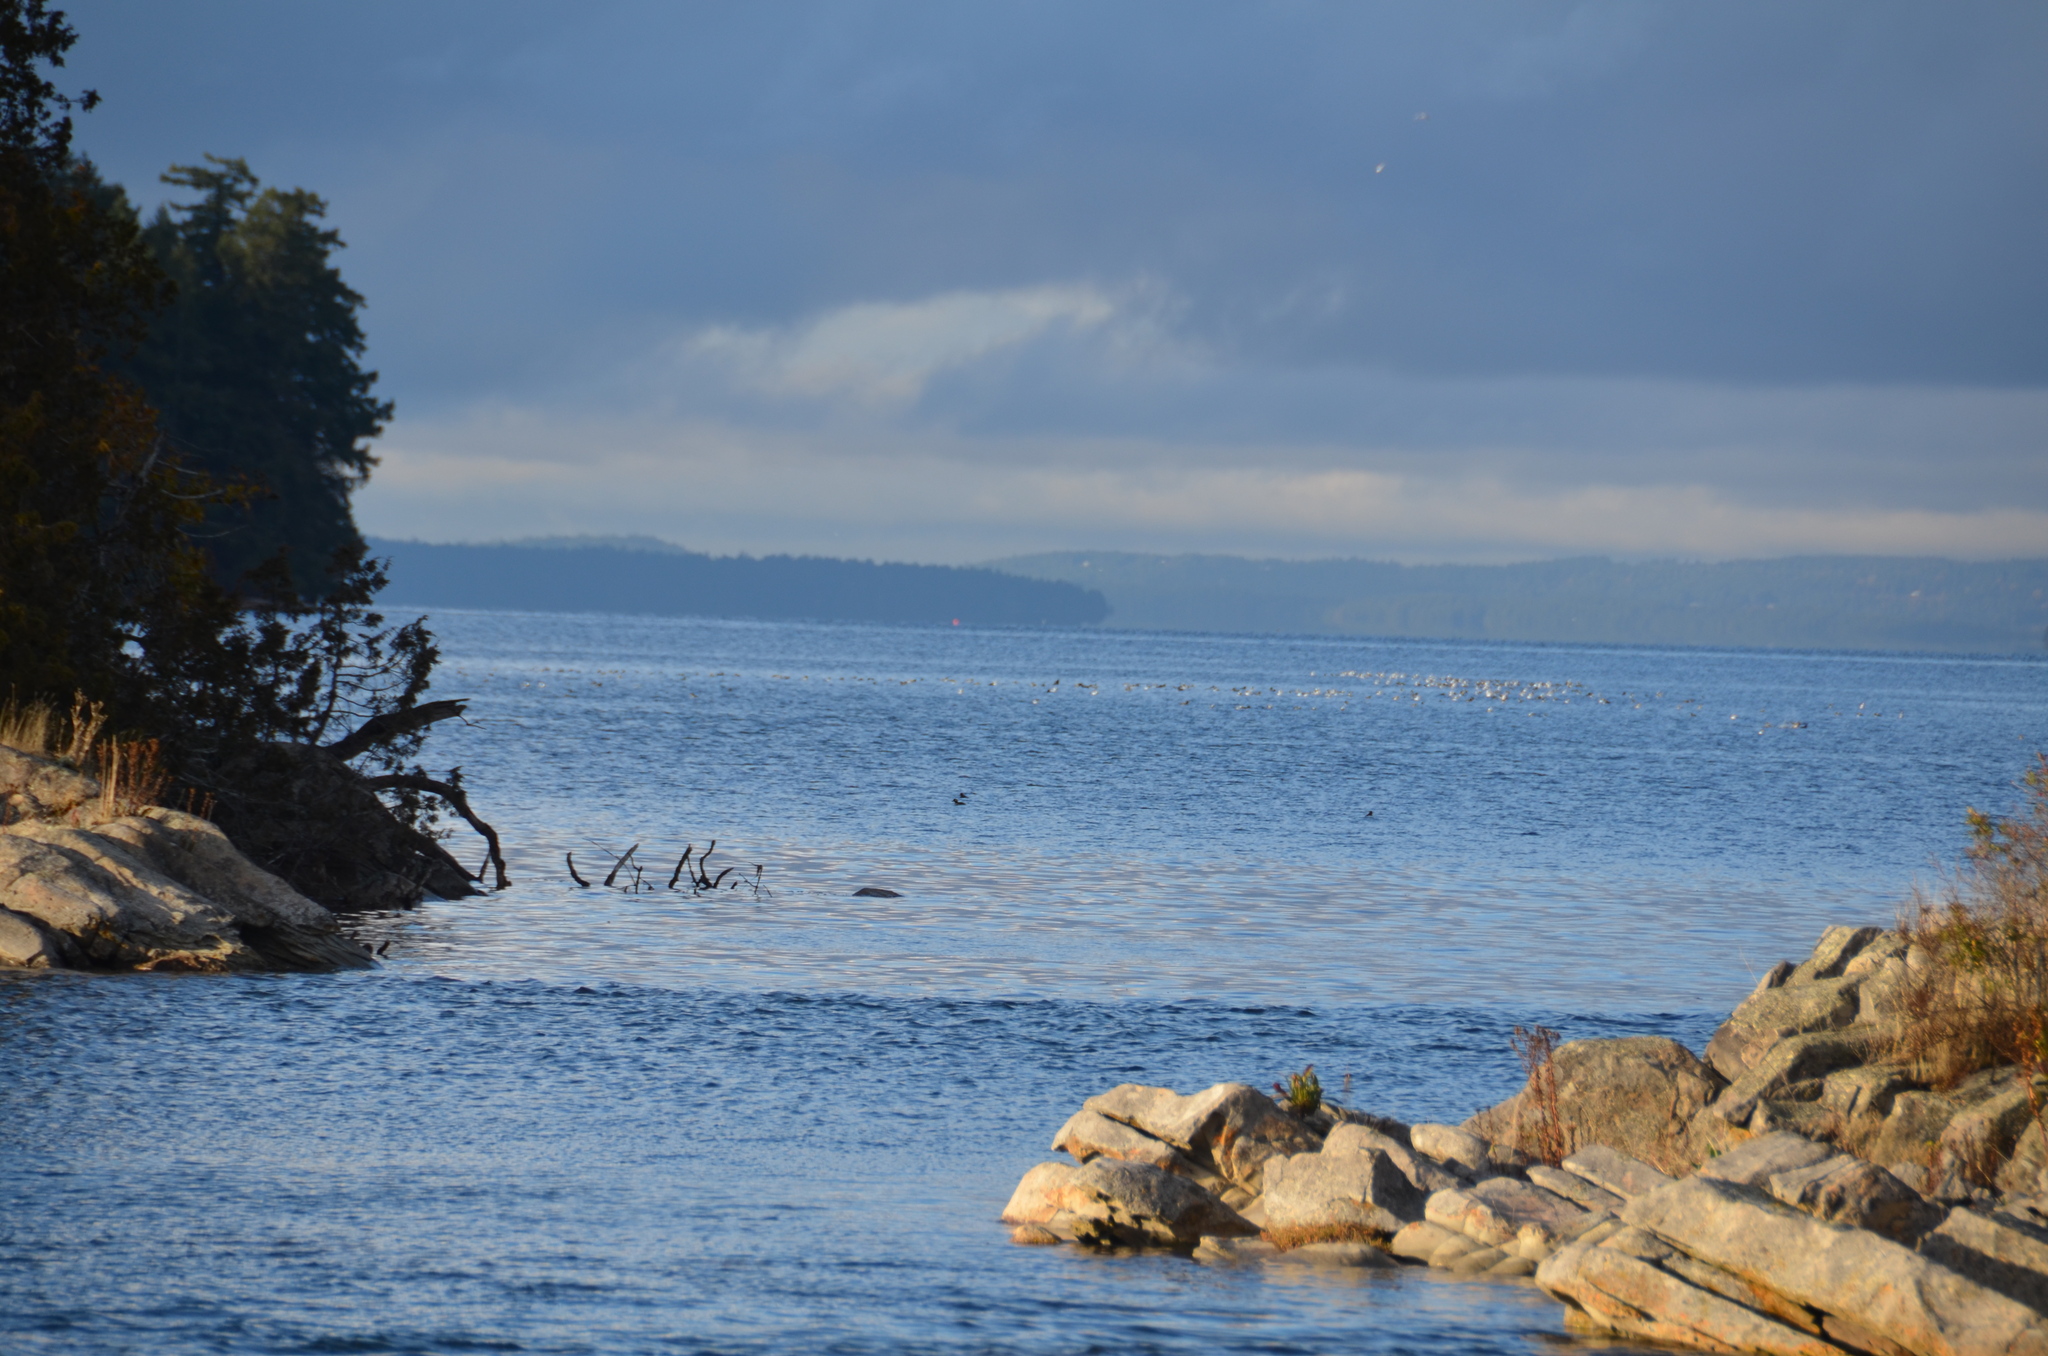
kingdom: Animalia
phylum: Chordata
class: Aves
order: Anseriformes
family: Anatidae
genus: Bucephala
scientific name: Bucephala albeola
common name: Bufflehead
